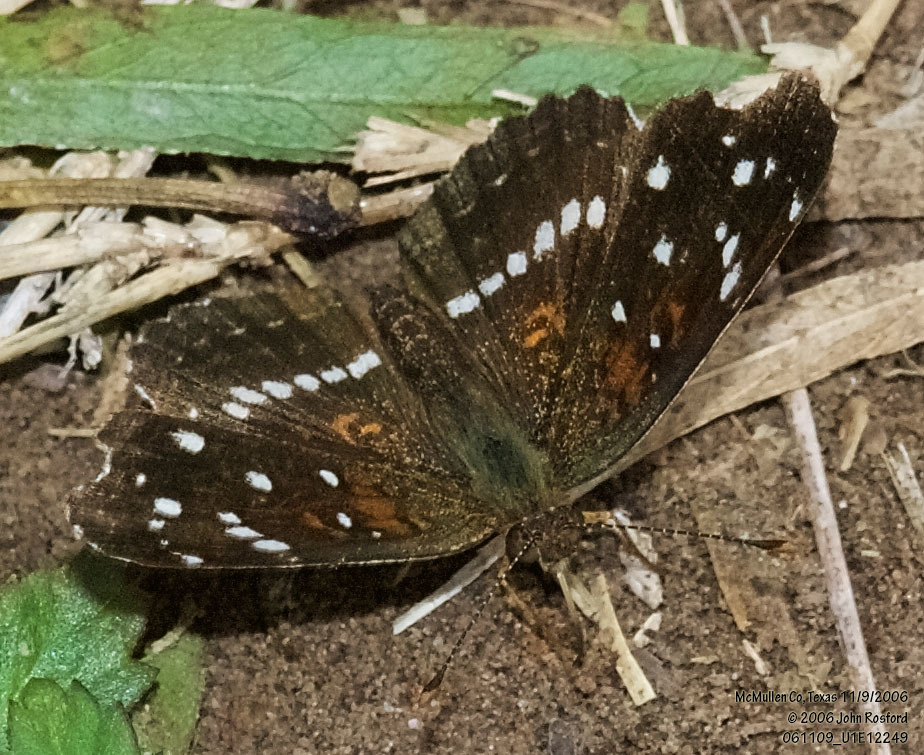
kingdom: Animalia
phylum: Arthropoda
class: Insecta
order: Lepidoptera
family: Nymphalidae
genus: Anthanassa
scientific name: Anthanassa texana
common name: Texan crescent
